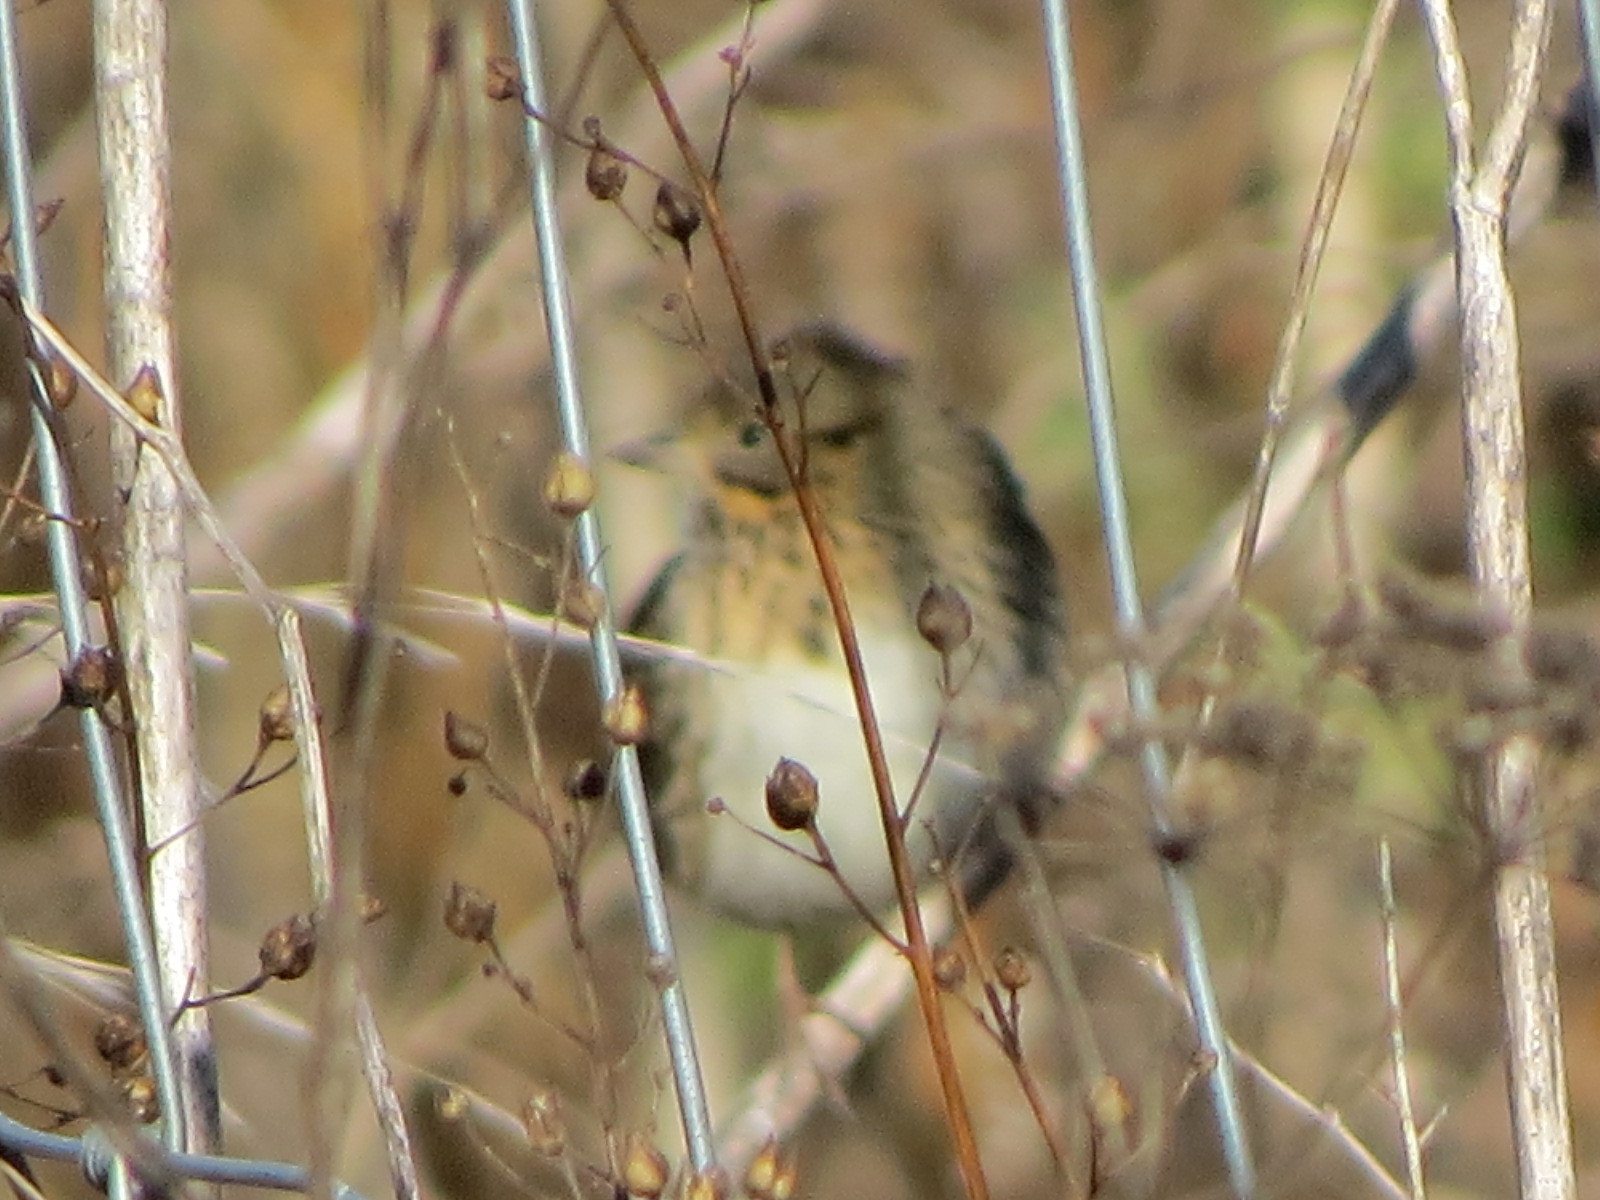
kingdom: Animalia
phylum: Chordata
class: Aves
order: Passeriformes
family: Passerellidae
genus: Melospiza
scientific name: Melospiza lincolnii
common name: Lincoln's sparrow
